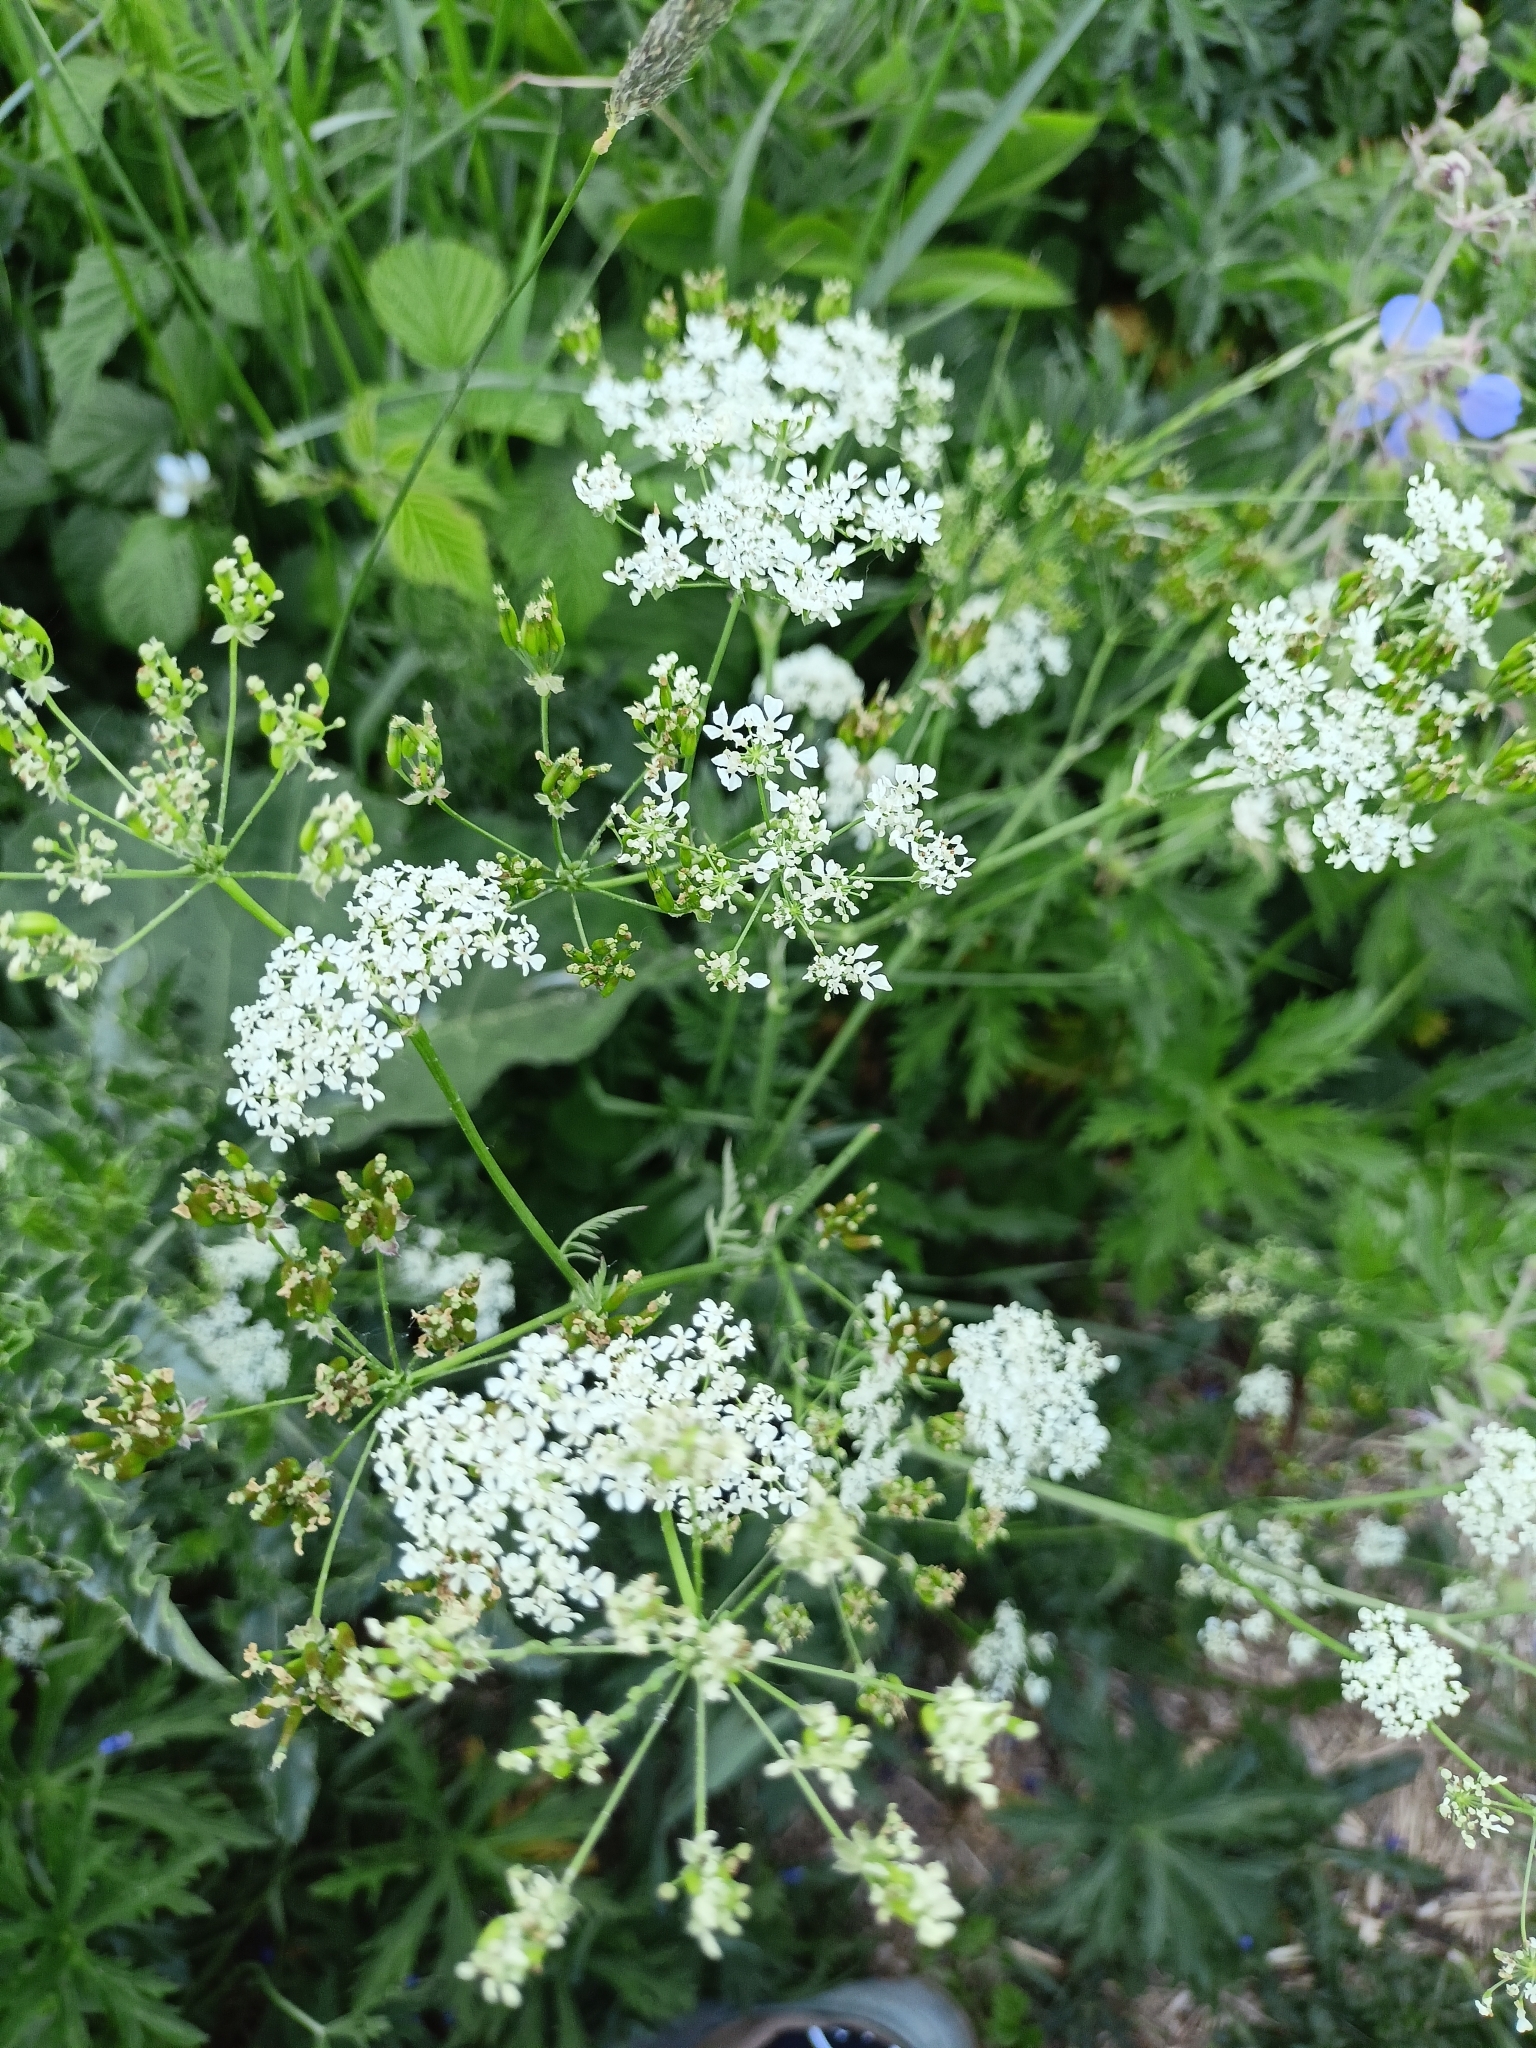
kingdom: Plantae
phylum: Tracheophyta
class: Magnoliopsida
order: Apiales
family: Apiaceae
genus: Anthriscus
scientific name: Anthriscus sylvestris
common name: Cow parsley
